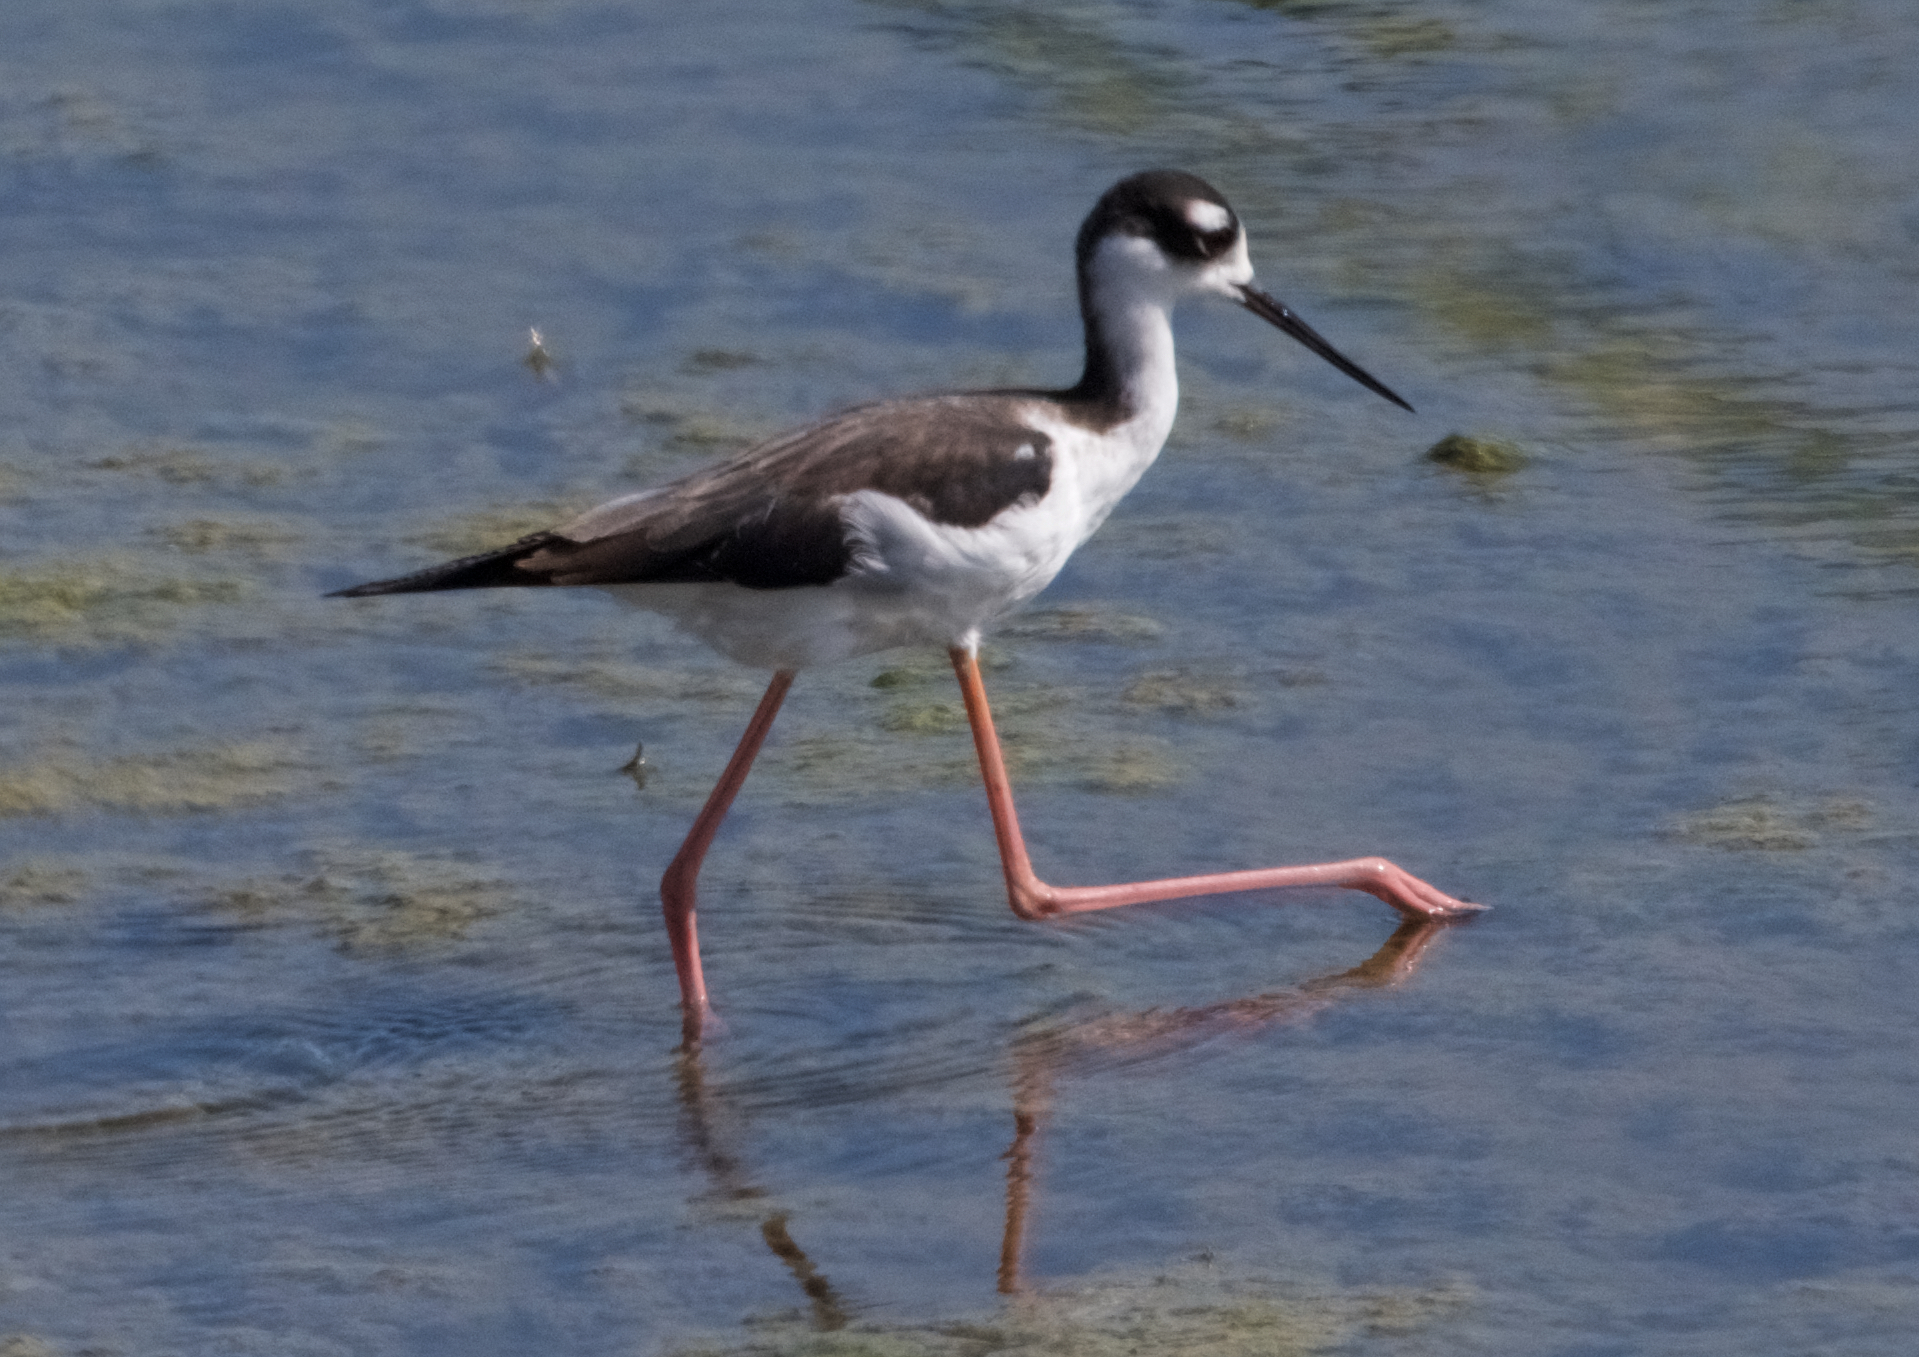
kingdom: Animalia
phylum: Chordata
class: Aves
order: Charadriiformes
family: Recurvirostridae
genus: Himantopus
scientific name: Himantopus mexicanus
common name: Black-necked stilt
